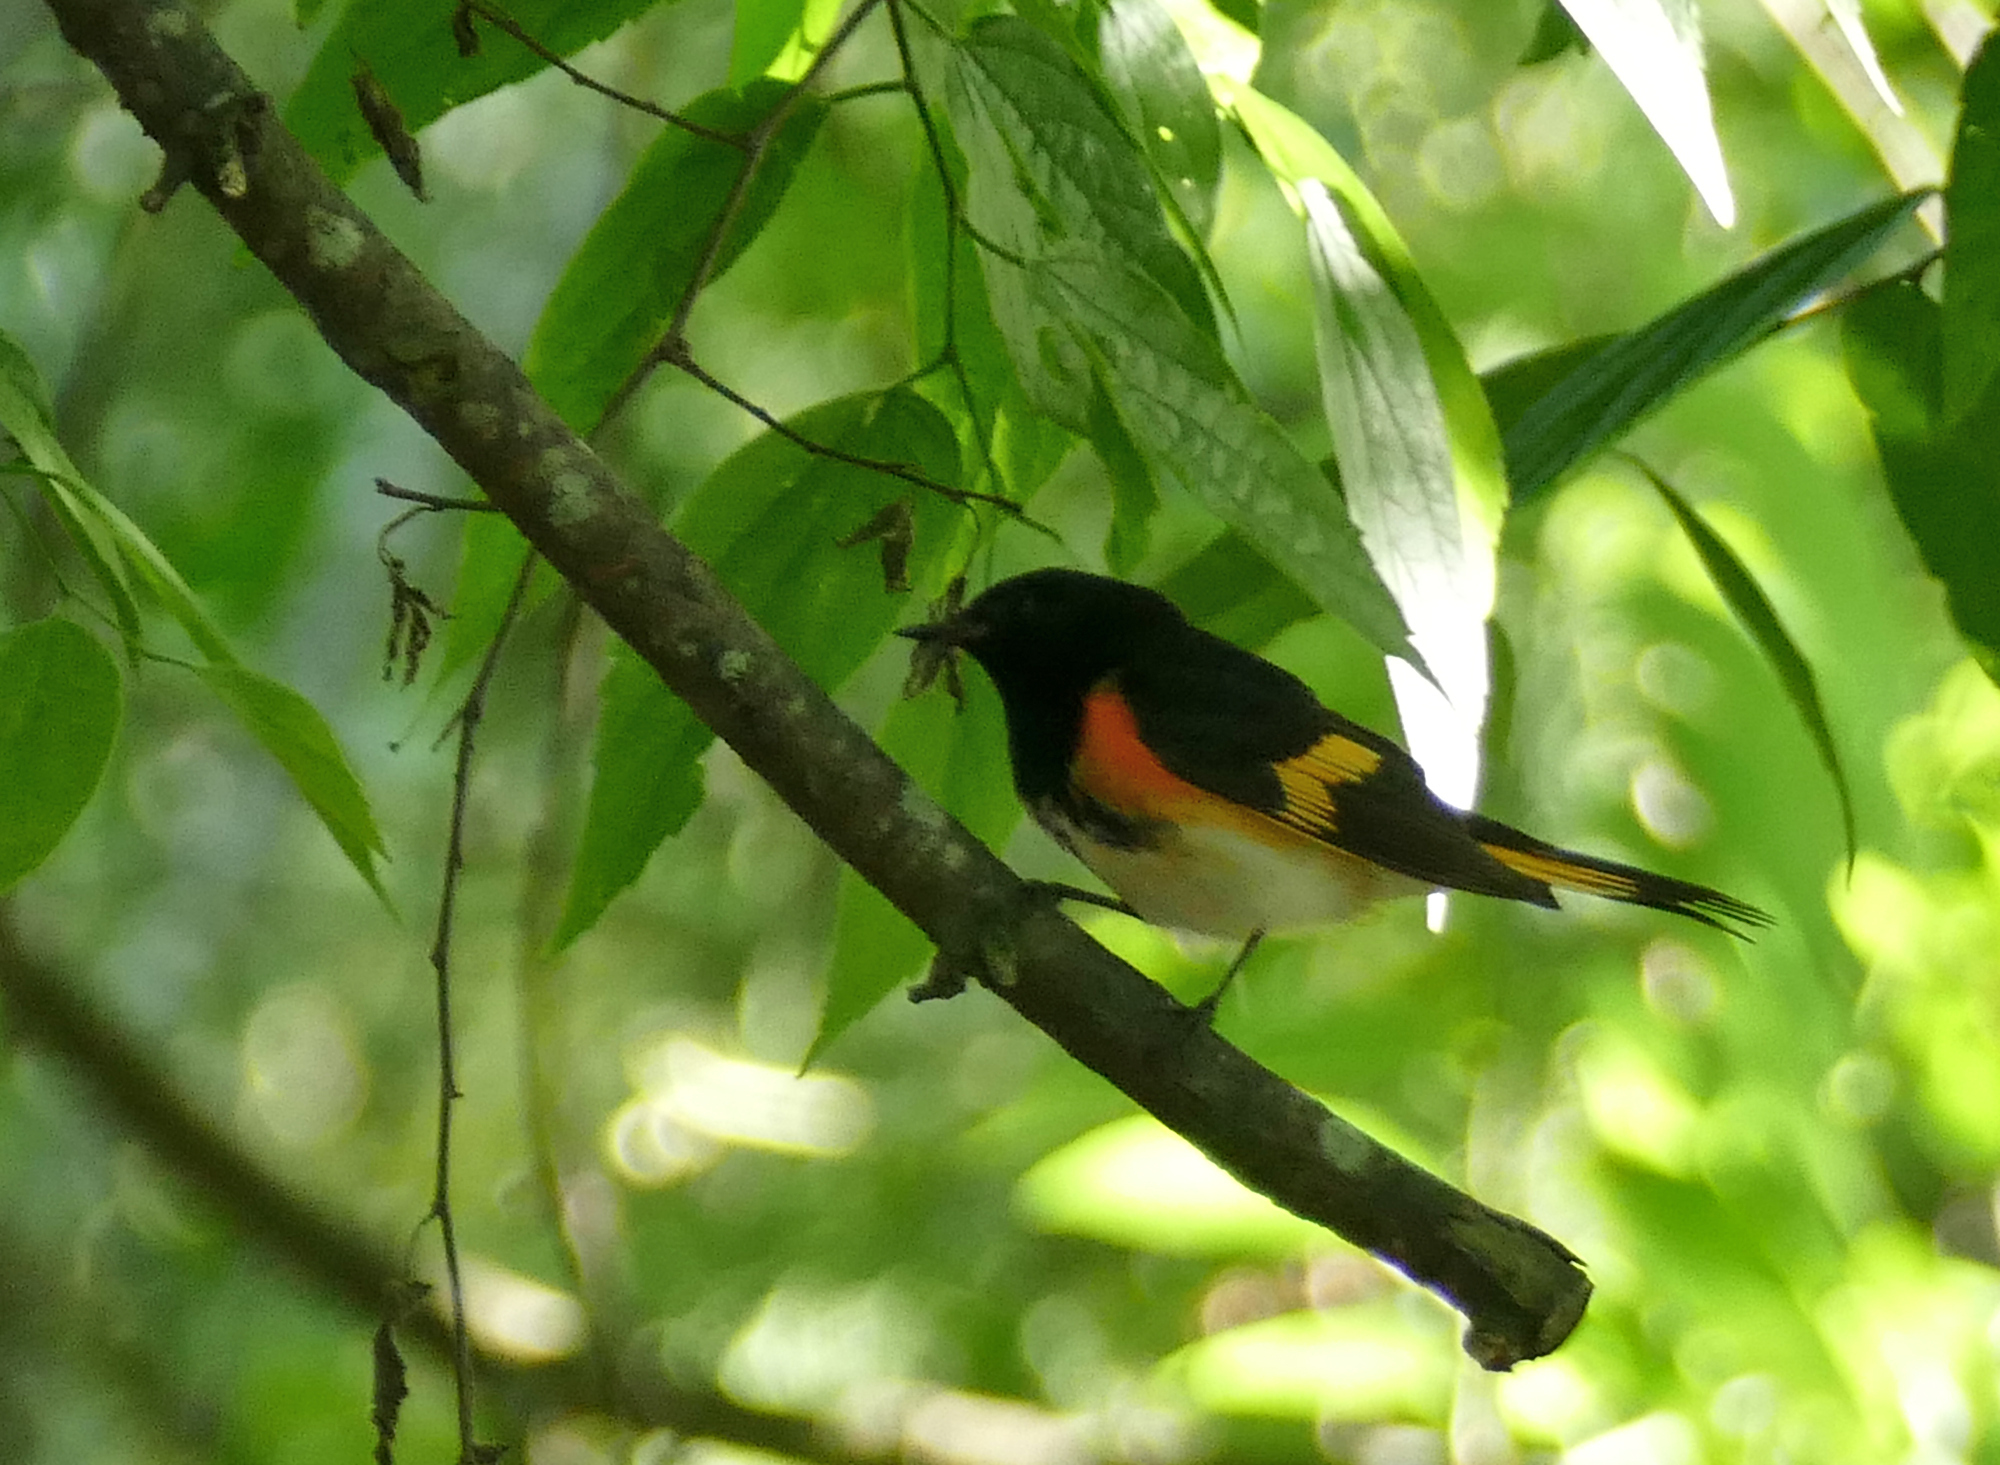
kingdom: Animalia
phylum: Chordata
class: Aves
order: Passeriformes
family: Parulidae
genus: Setophaga
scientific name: Setophaga ruticilla
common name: American redstart
